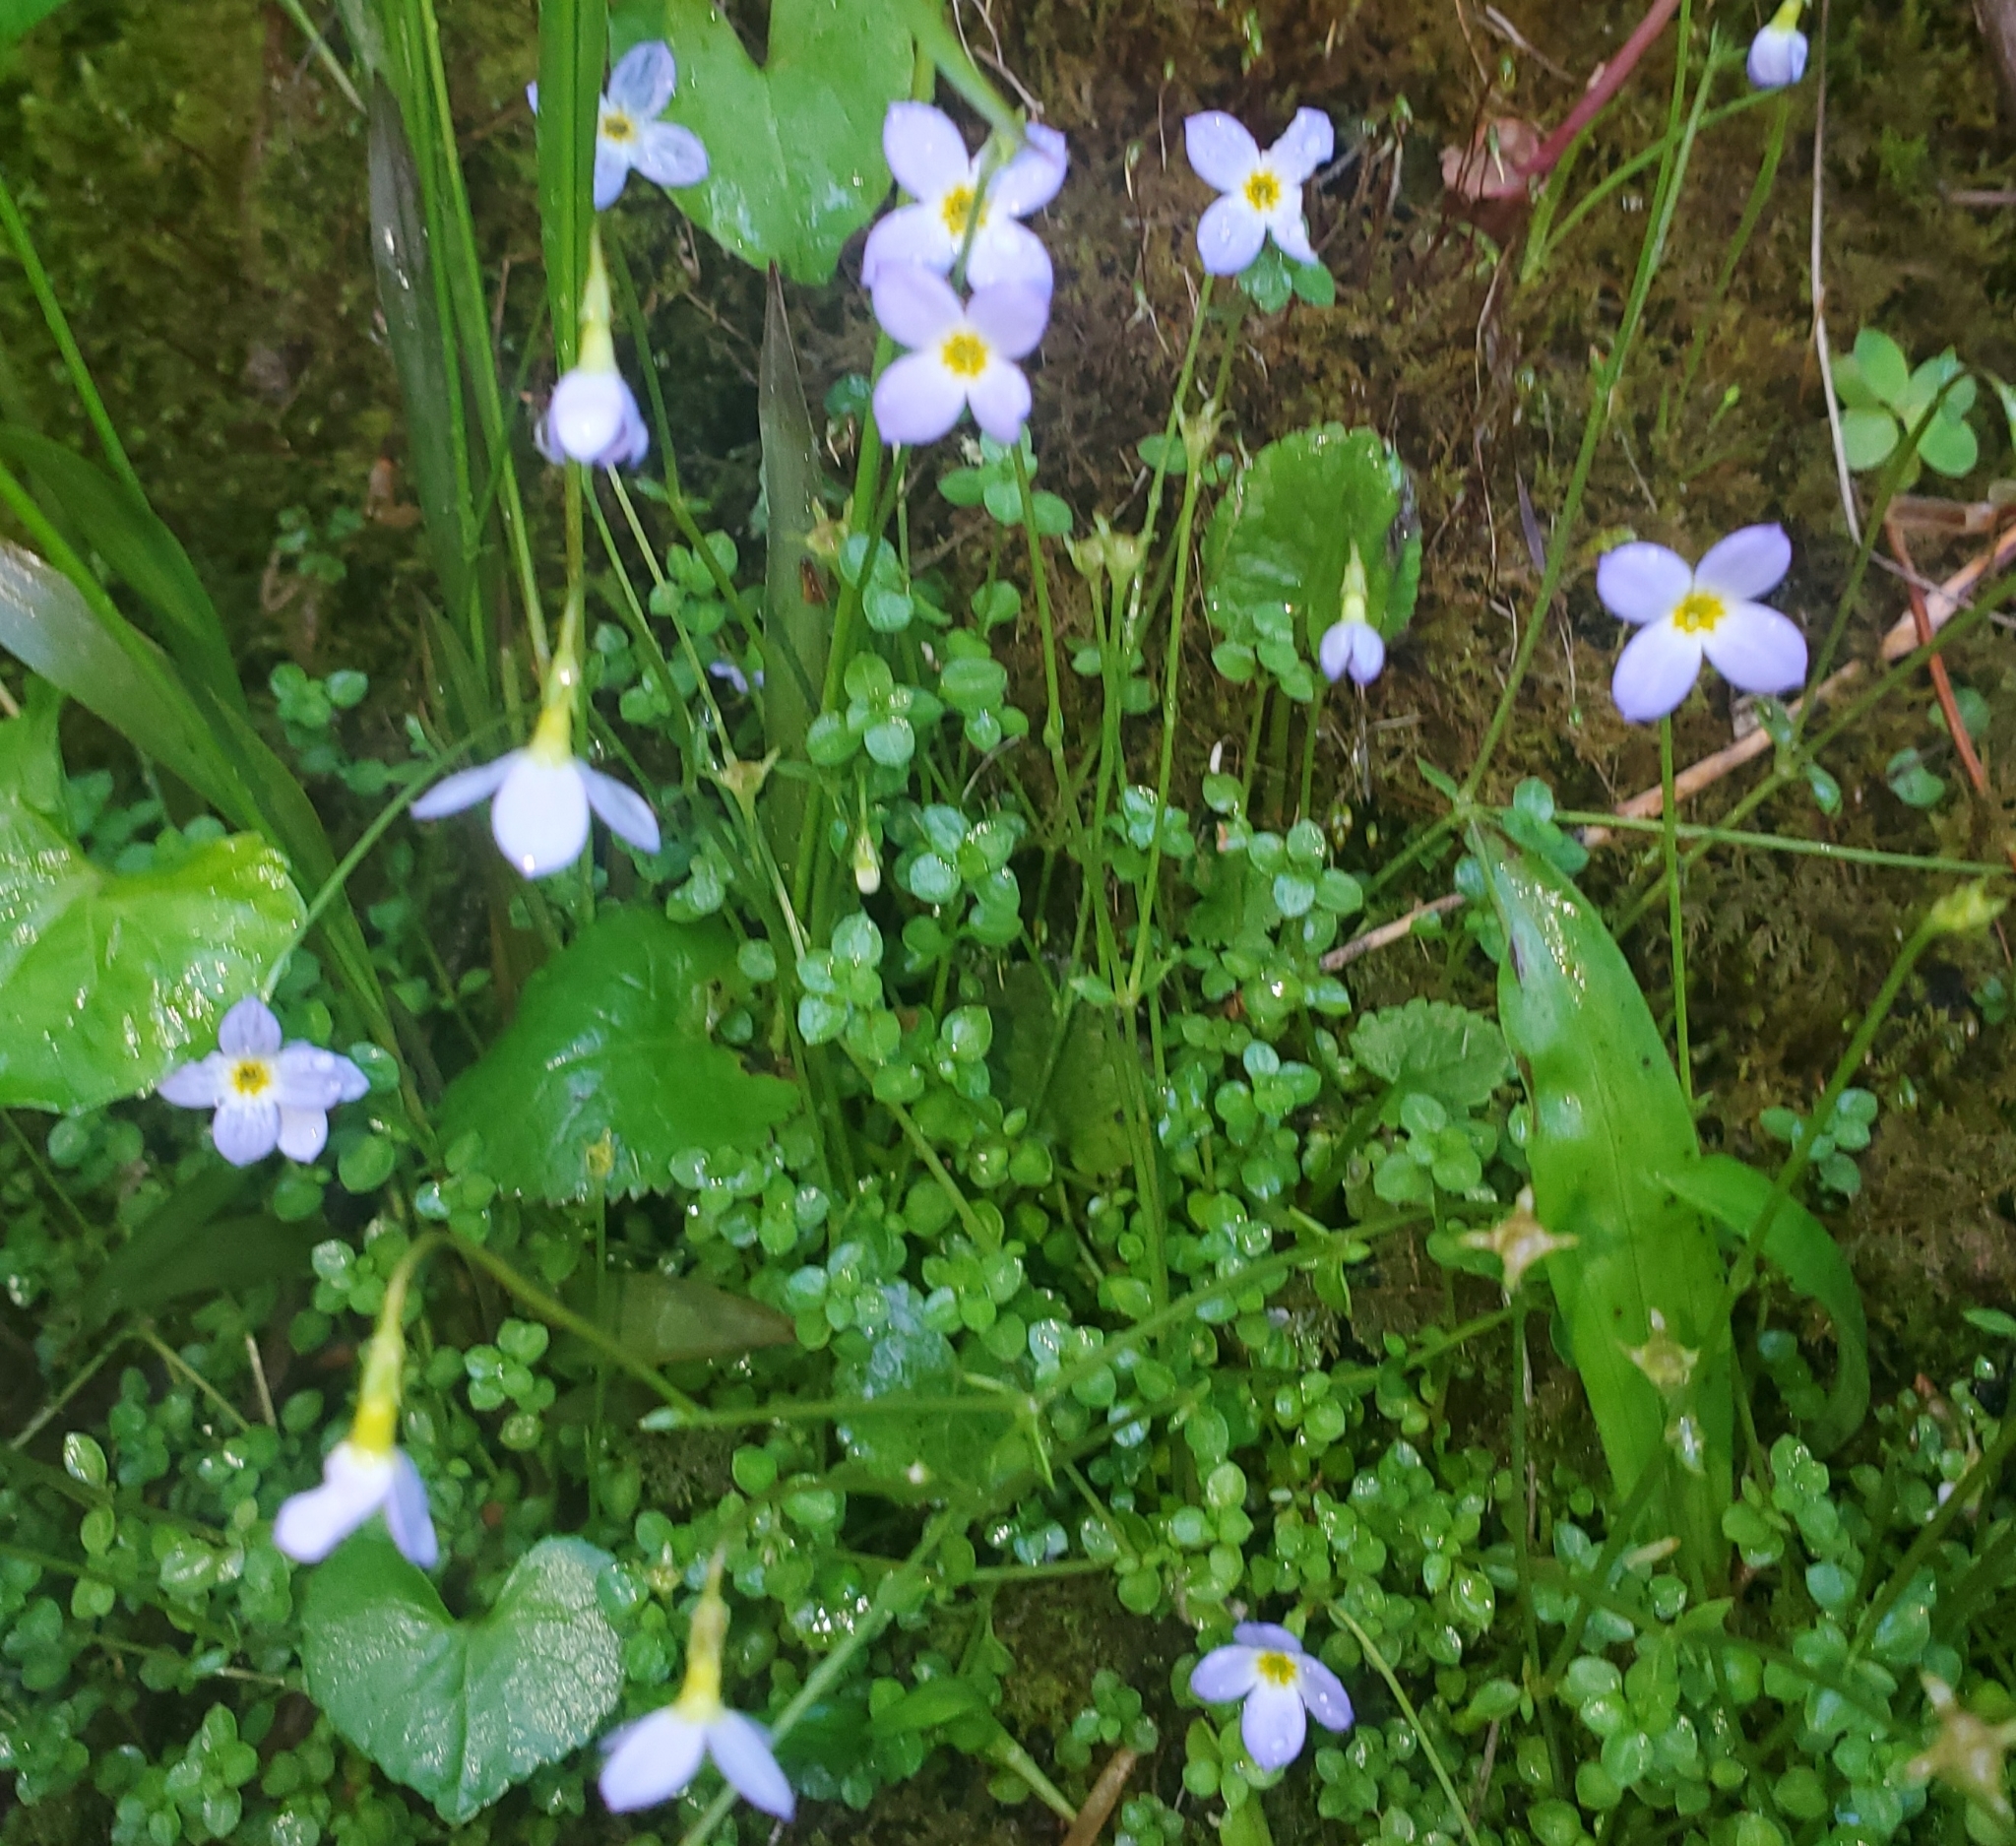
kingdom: Plantae
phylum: Tracheophyta
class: Magnoliopsida
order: Gentianales
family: Rubiaceae
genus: Houstonia
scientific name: Houstonia serpyllifolia
